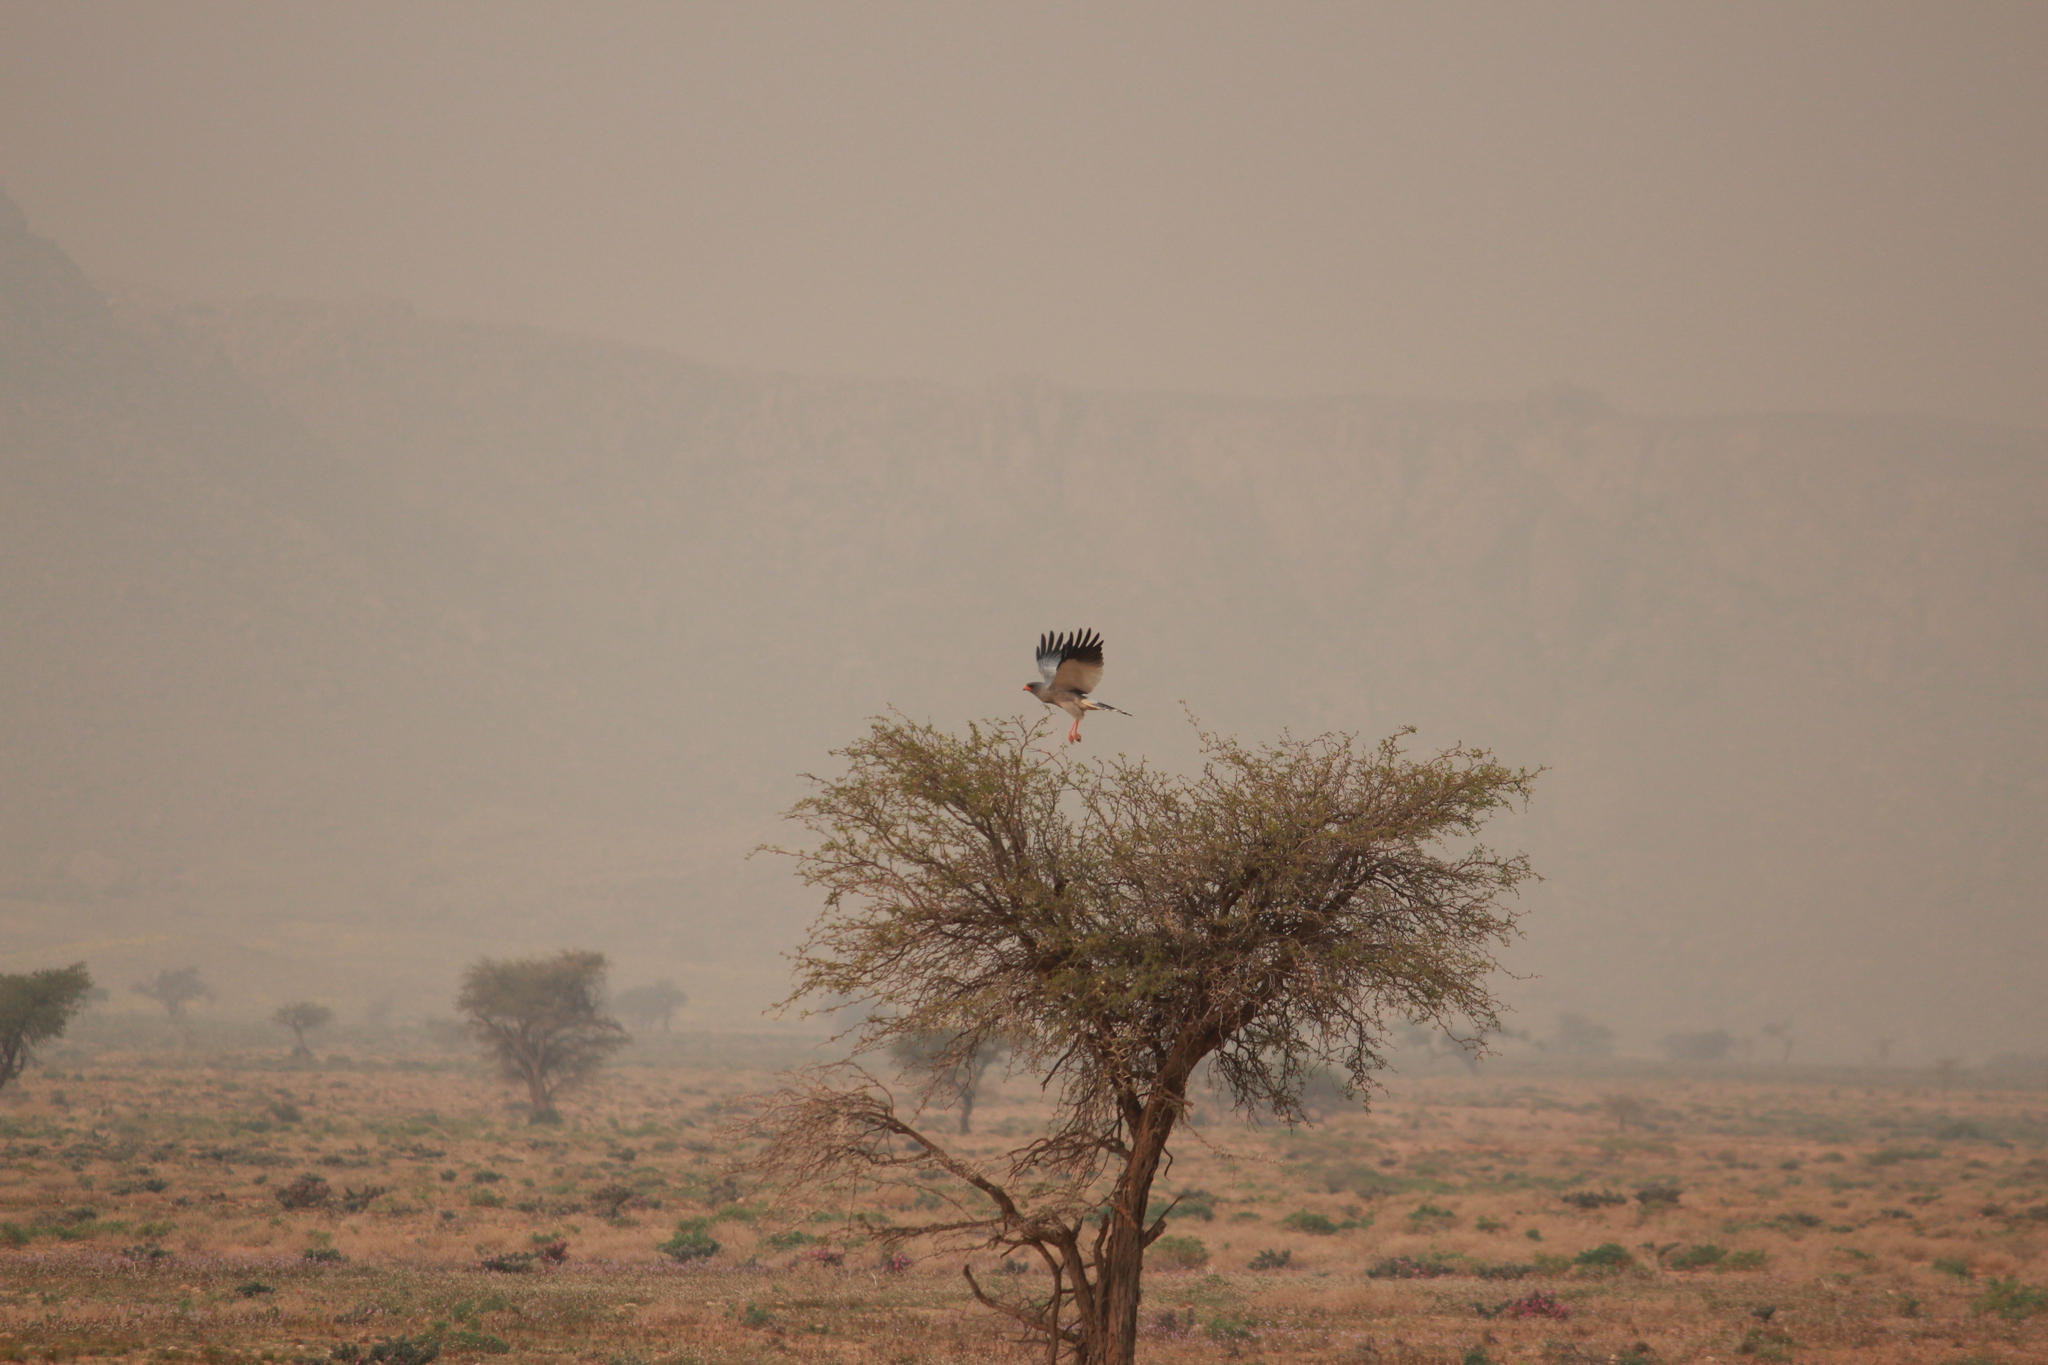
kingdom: Animalia
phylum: Chordata
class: Aves
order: Accipitriformes
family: Accipitridae
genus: Melierax
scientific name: Melierax canorus
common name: Pale chanting-goshawk
